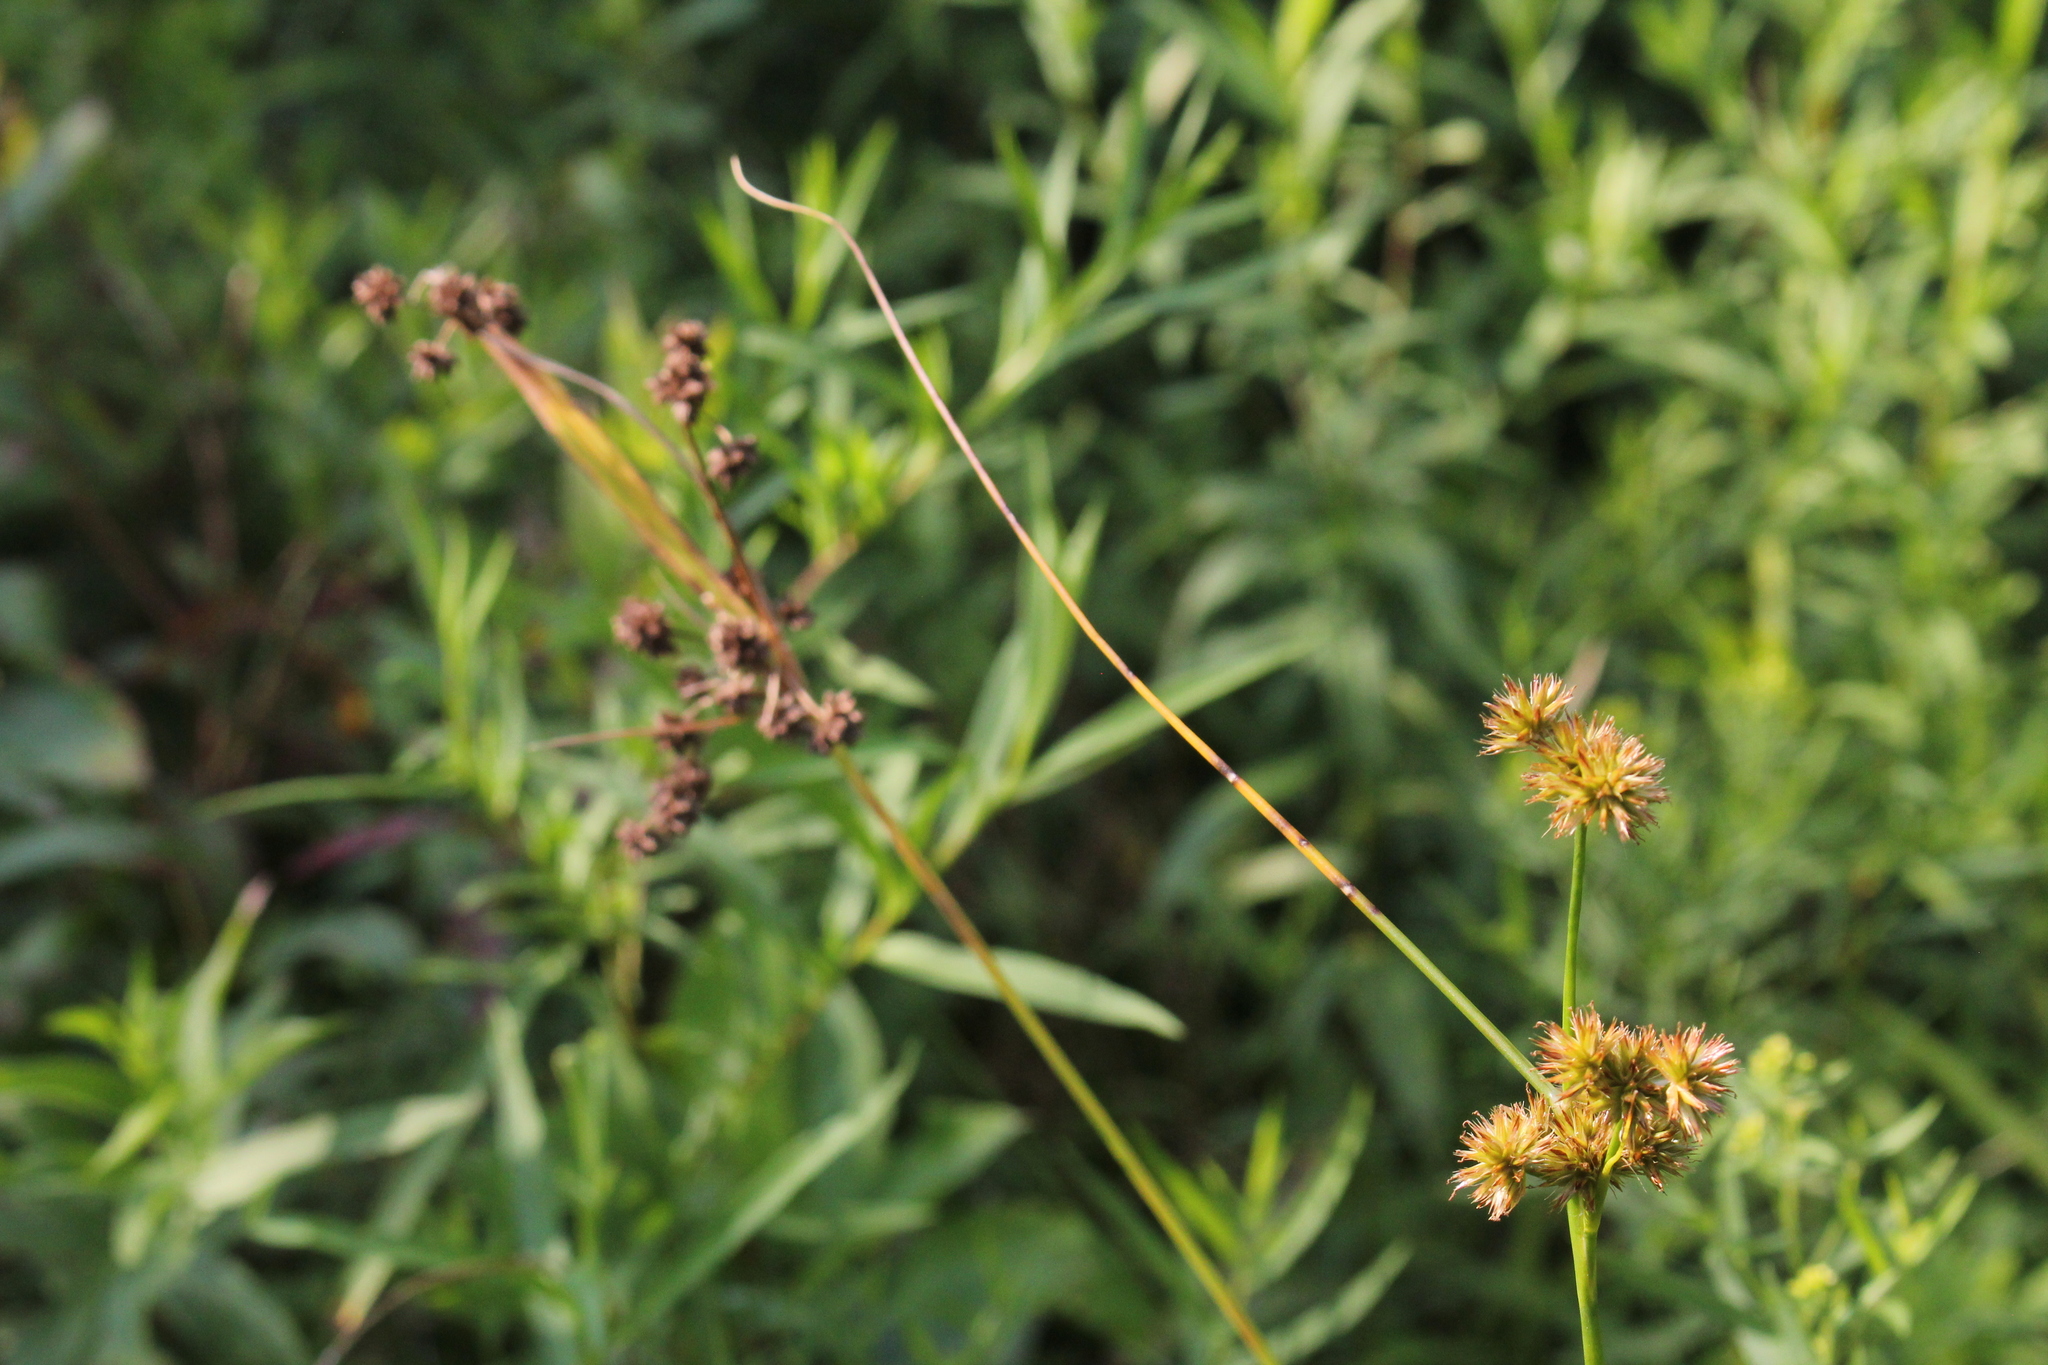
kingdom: Plantae
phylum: Tracheophyta
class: Liliopsida
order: Poales
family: Juncaceae
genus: Juncus
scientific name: Juncus torreyi
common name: Torrey's rush
